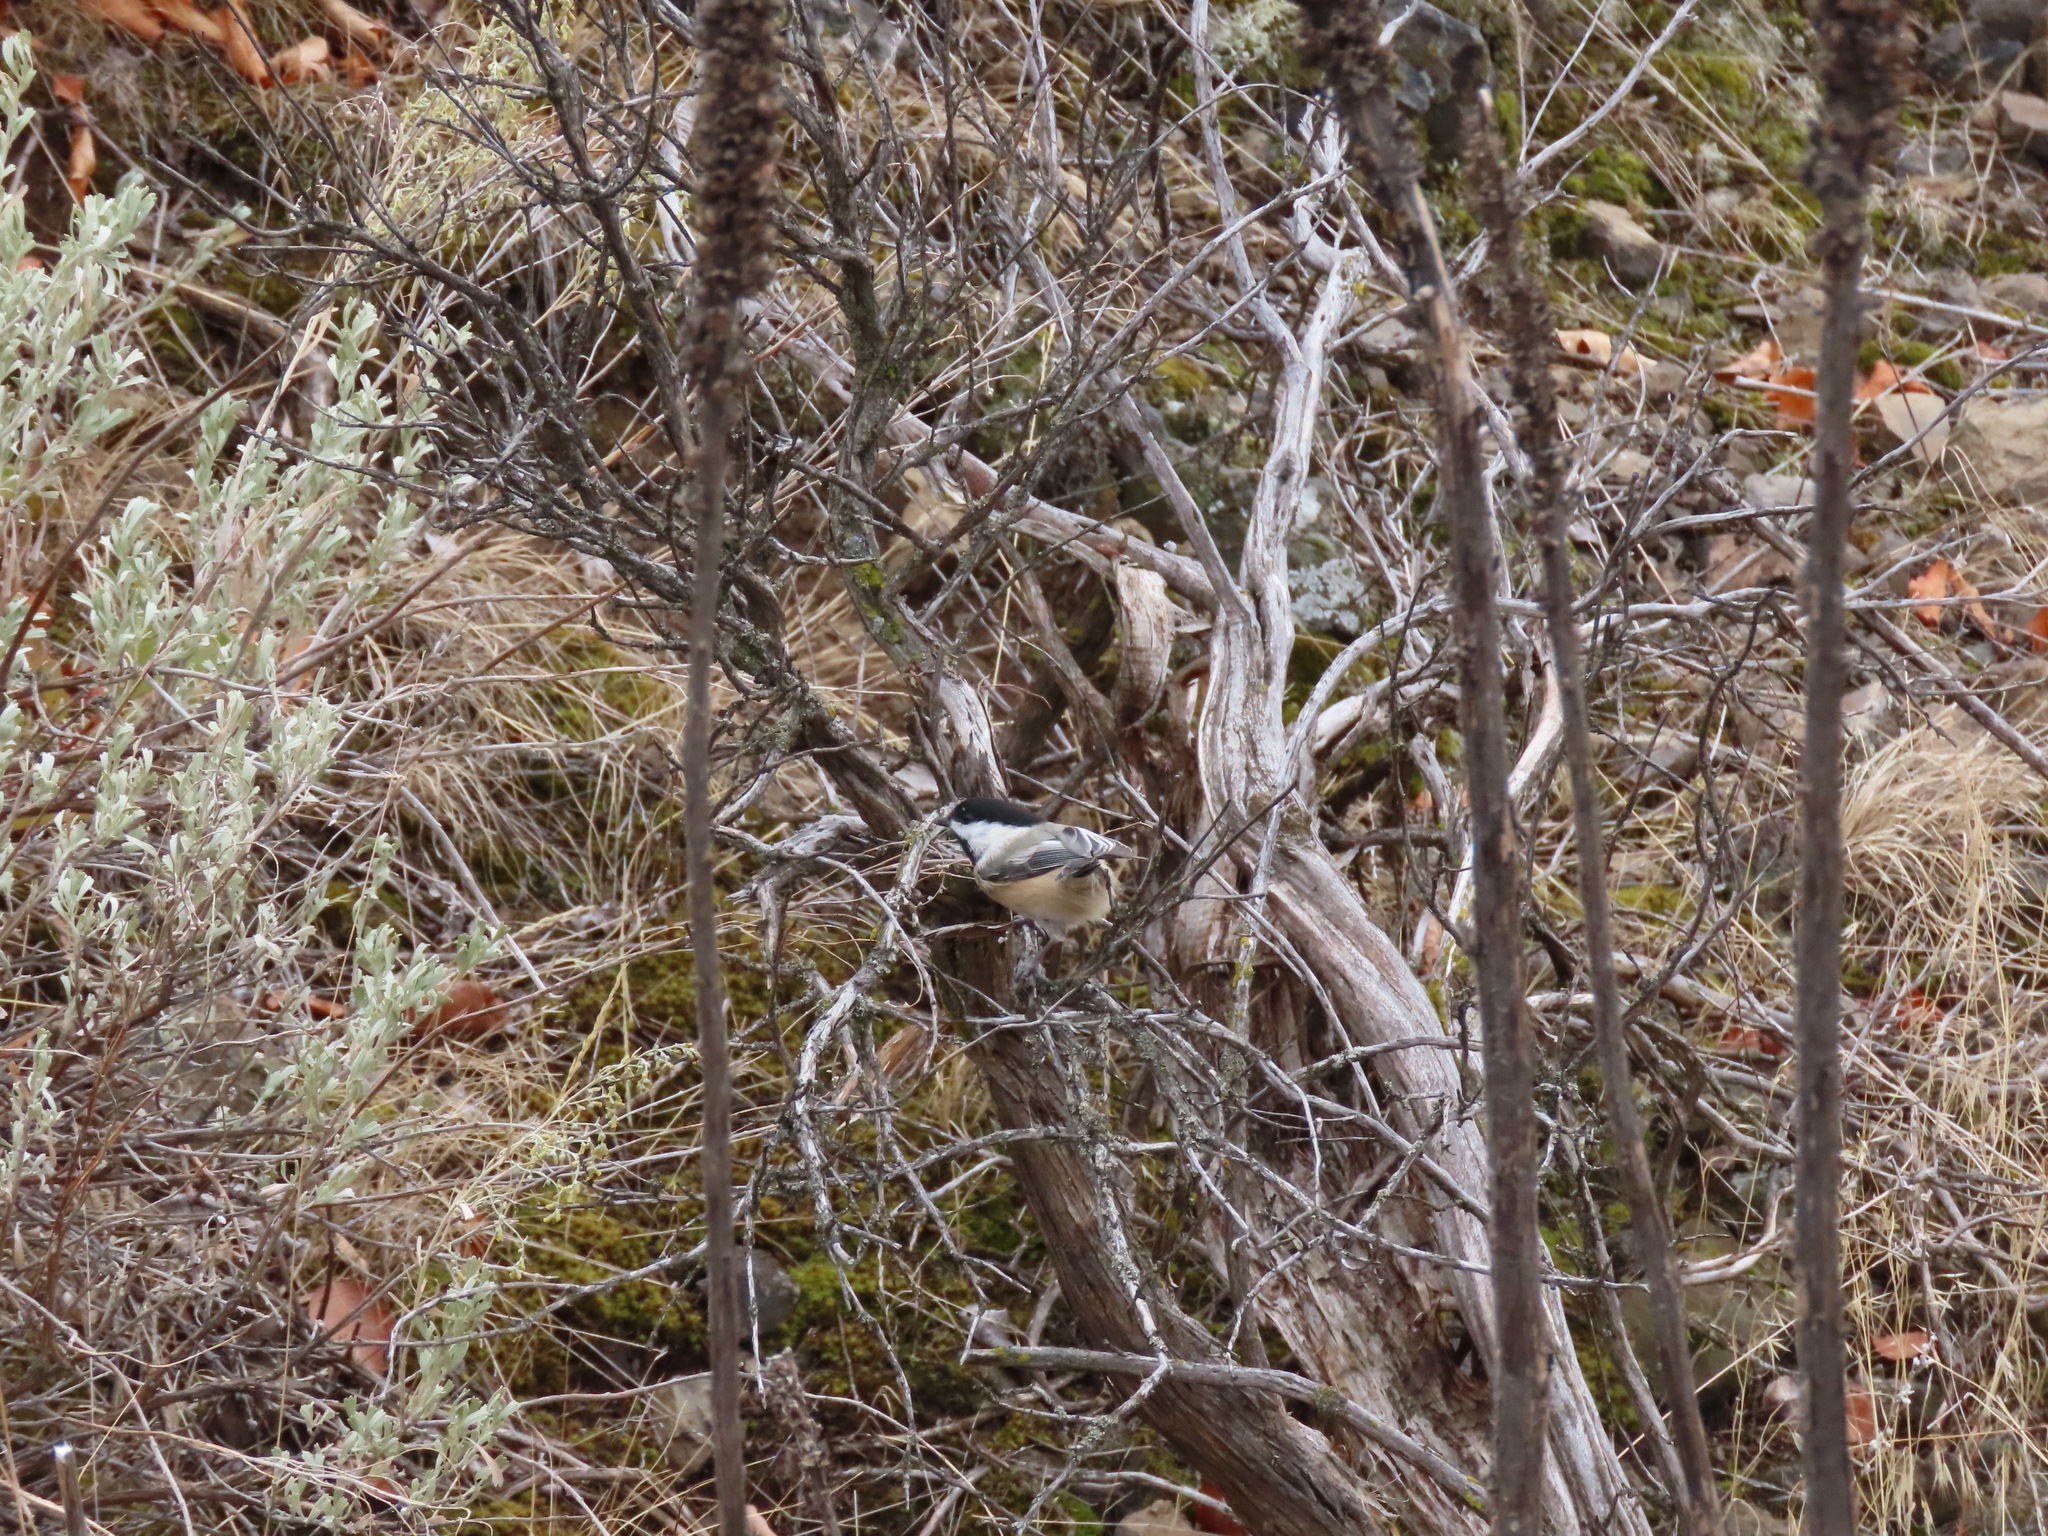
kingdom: Animalia
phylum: Chordata
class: Aves
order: Passeriformes
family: Paridae
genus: Poecile
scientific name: Poecile atricapillus
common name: Black-capped chickadee
